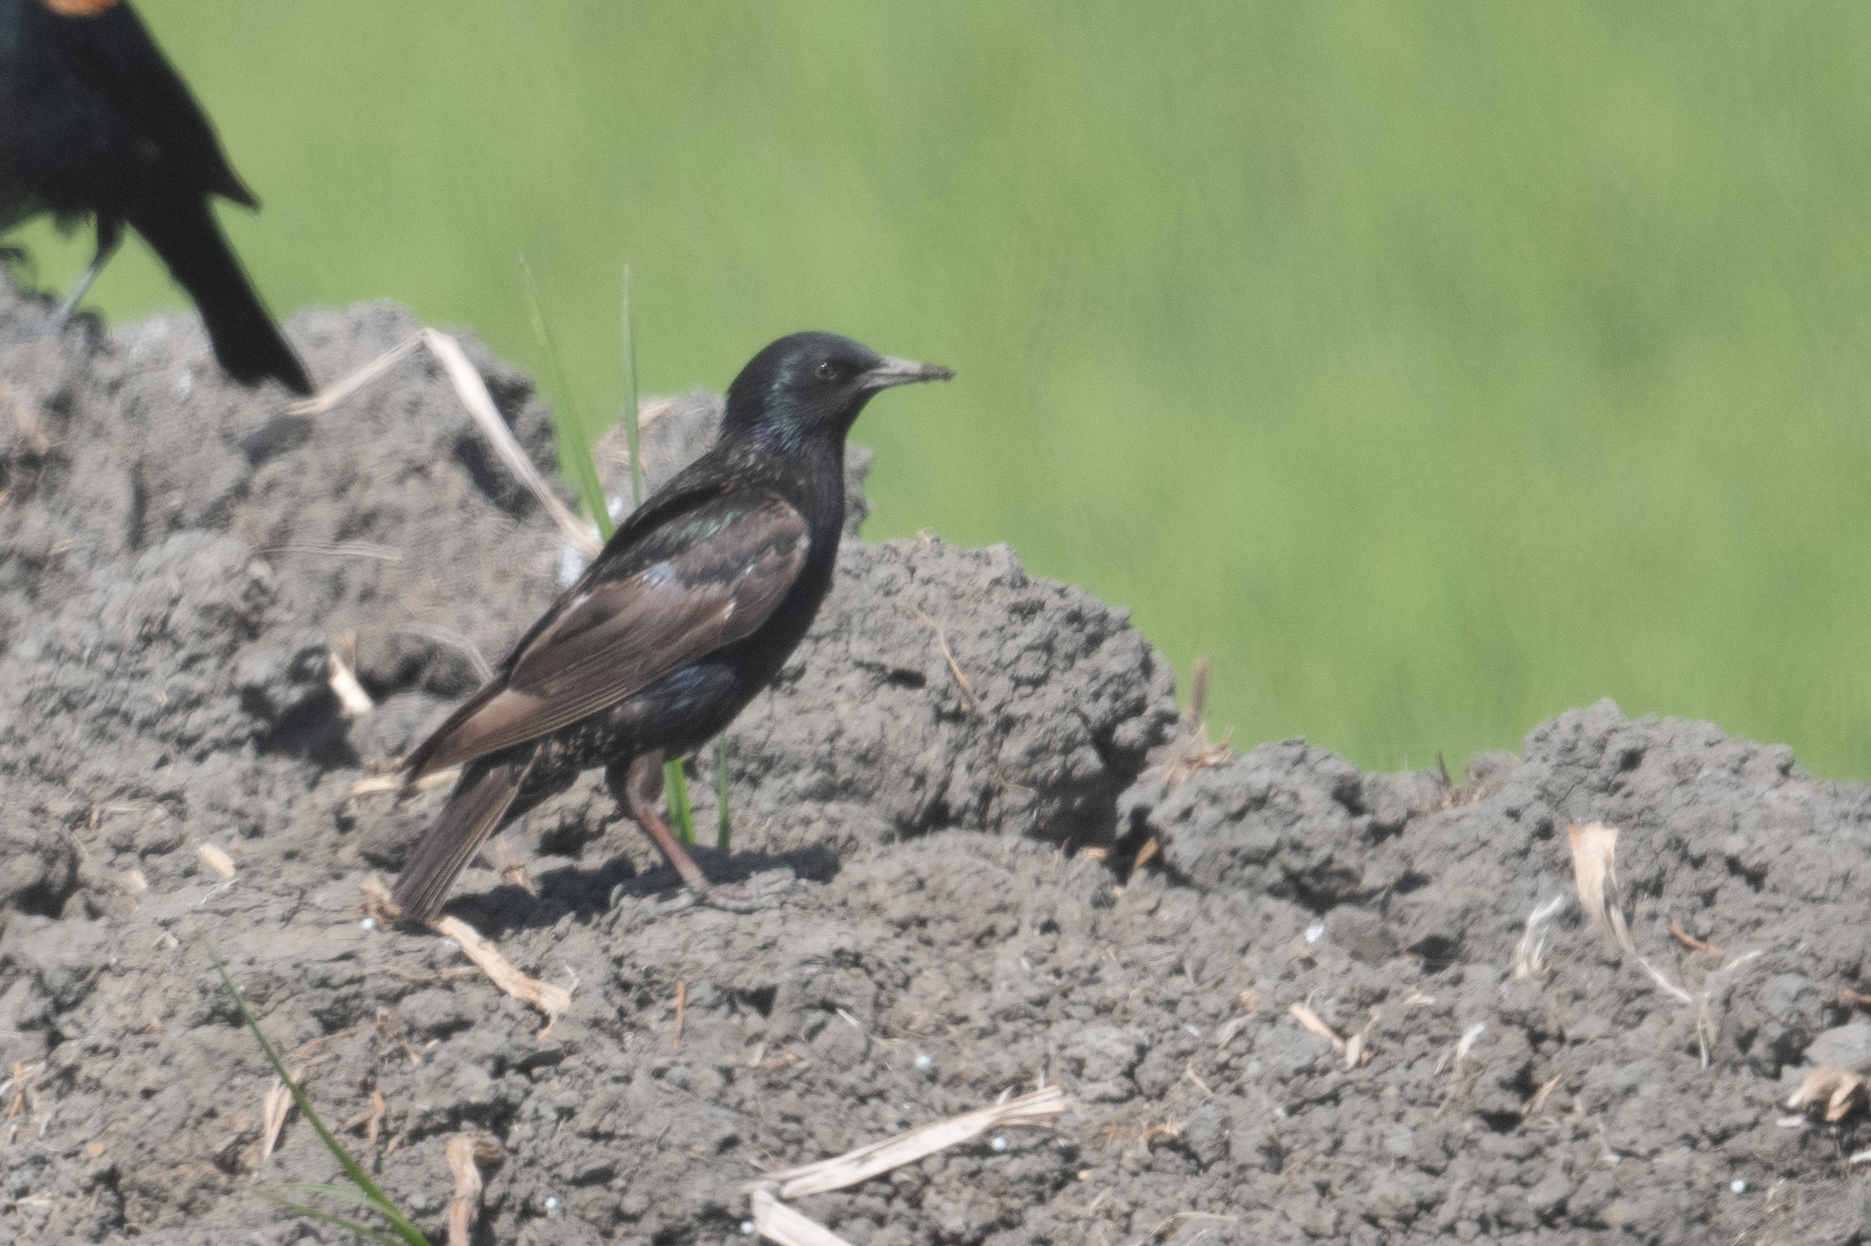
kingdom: Animalia
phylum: Chordata
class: Aves
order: Passeriformes
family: Sturnidae
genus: Sturnus
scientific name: Sturnus vulgaris
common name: Common starling
